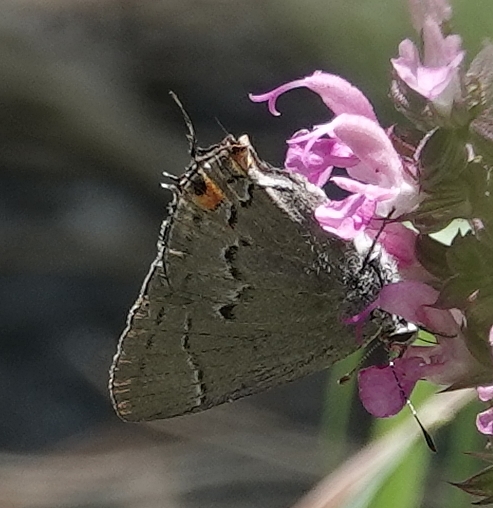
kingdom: Animalia
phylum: Arthropoda
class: Insecta
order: Lepidoptera
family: Lycaenidae
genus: Strymon
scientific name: Strymon melinus
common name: Gray hairstreak
